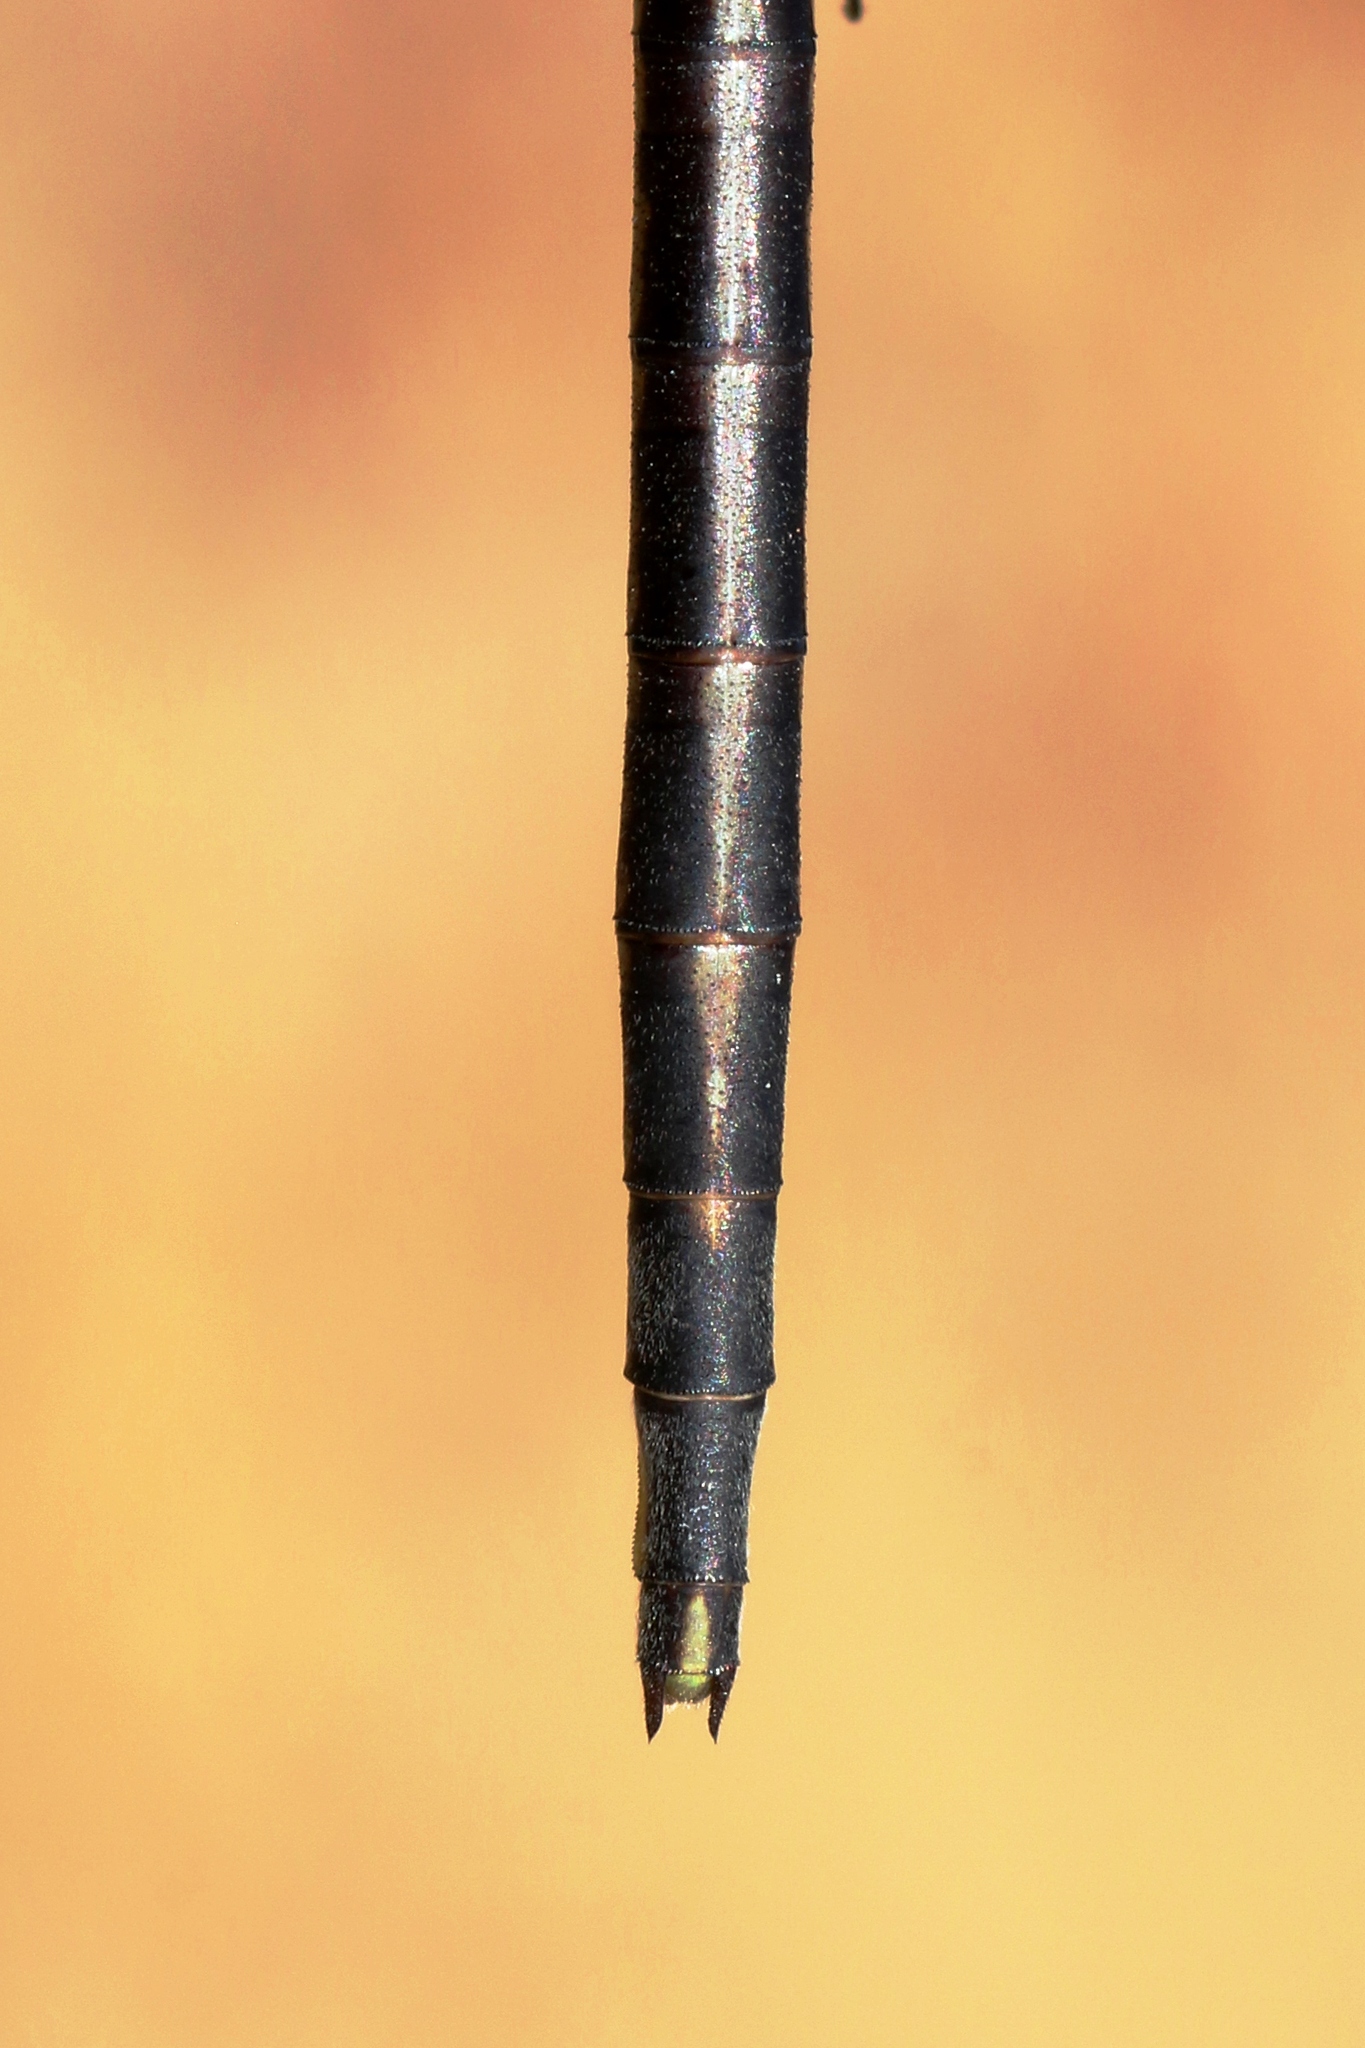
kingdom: Animalia
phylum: Arthropoda
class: Insecta
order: Odonata
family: Gomphidae
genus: Phanogomphus
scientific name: Phanogomphus spicatus
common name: Dusky clubtail
